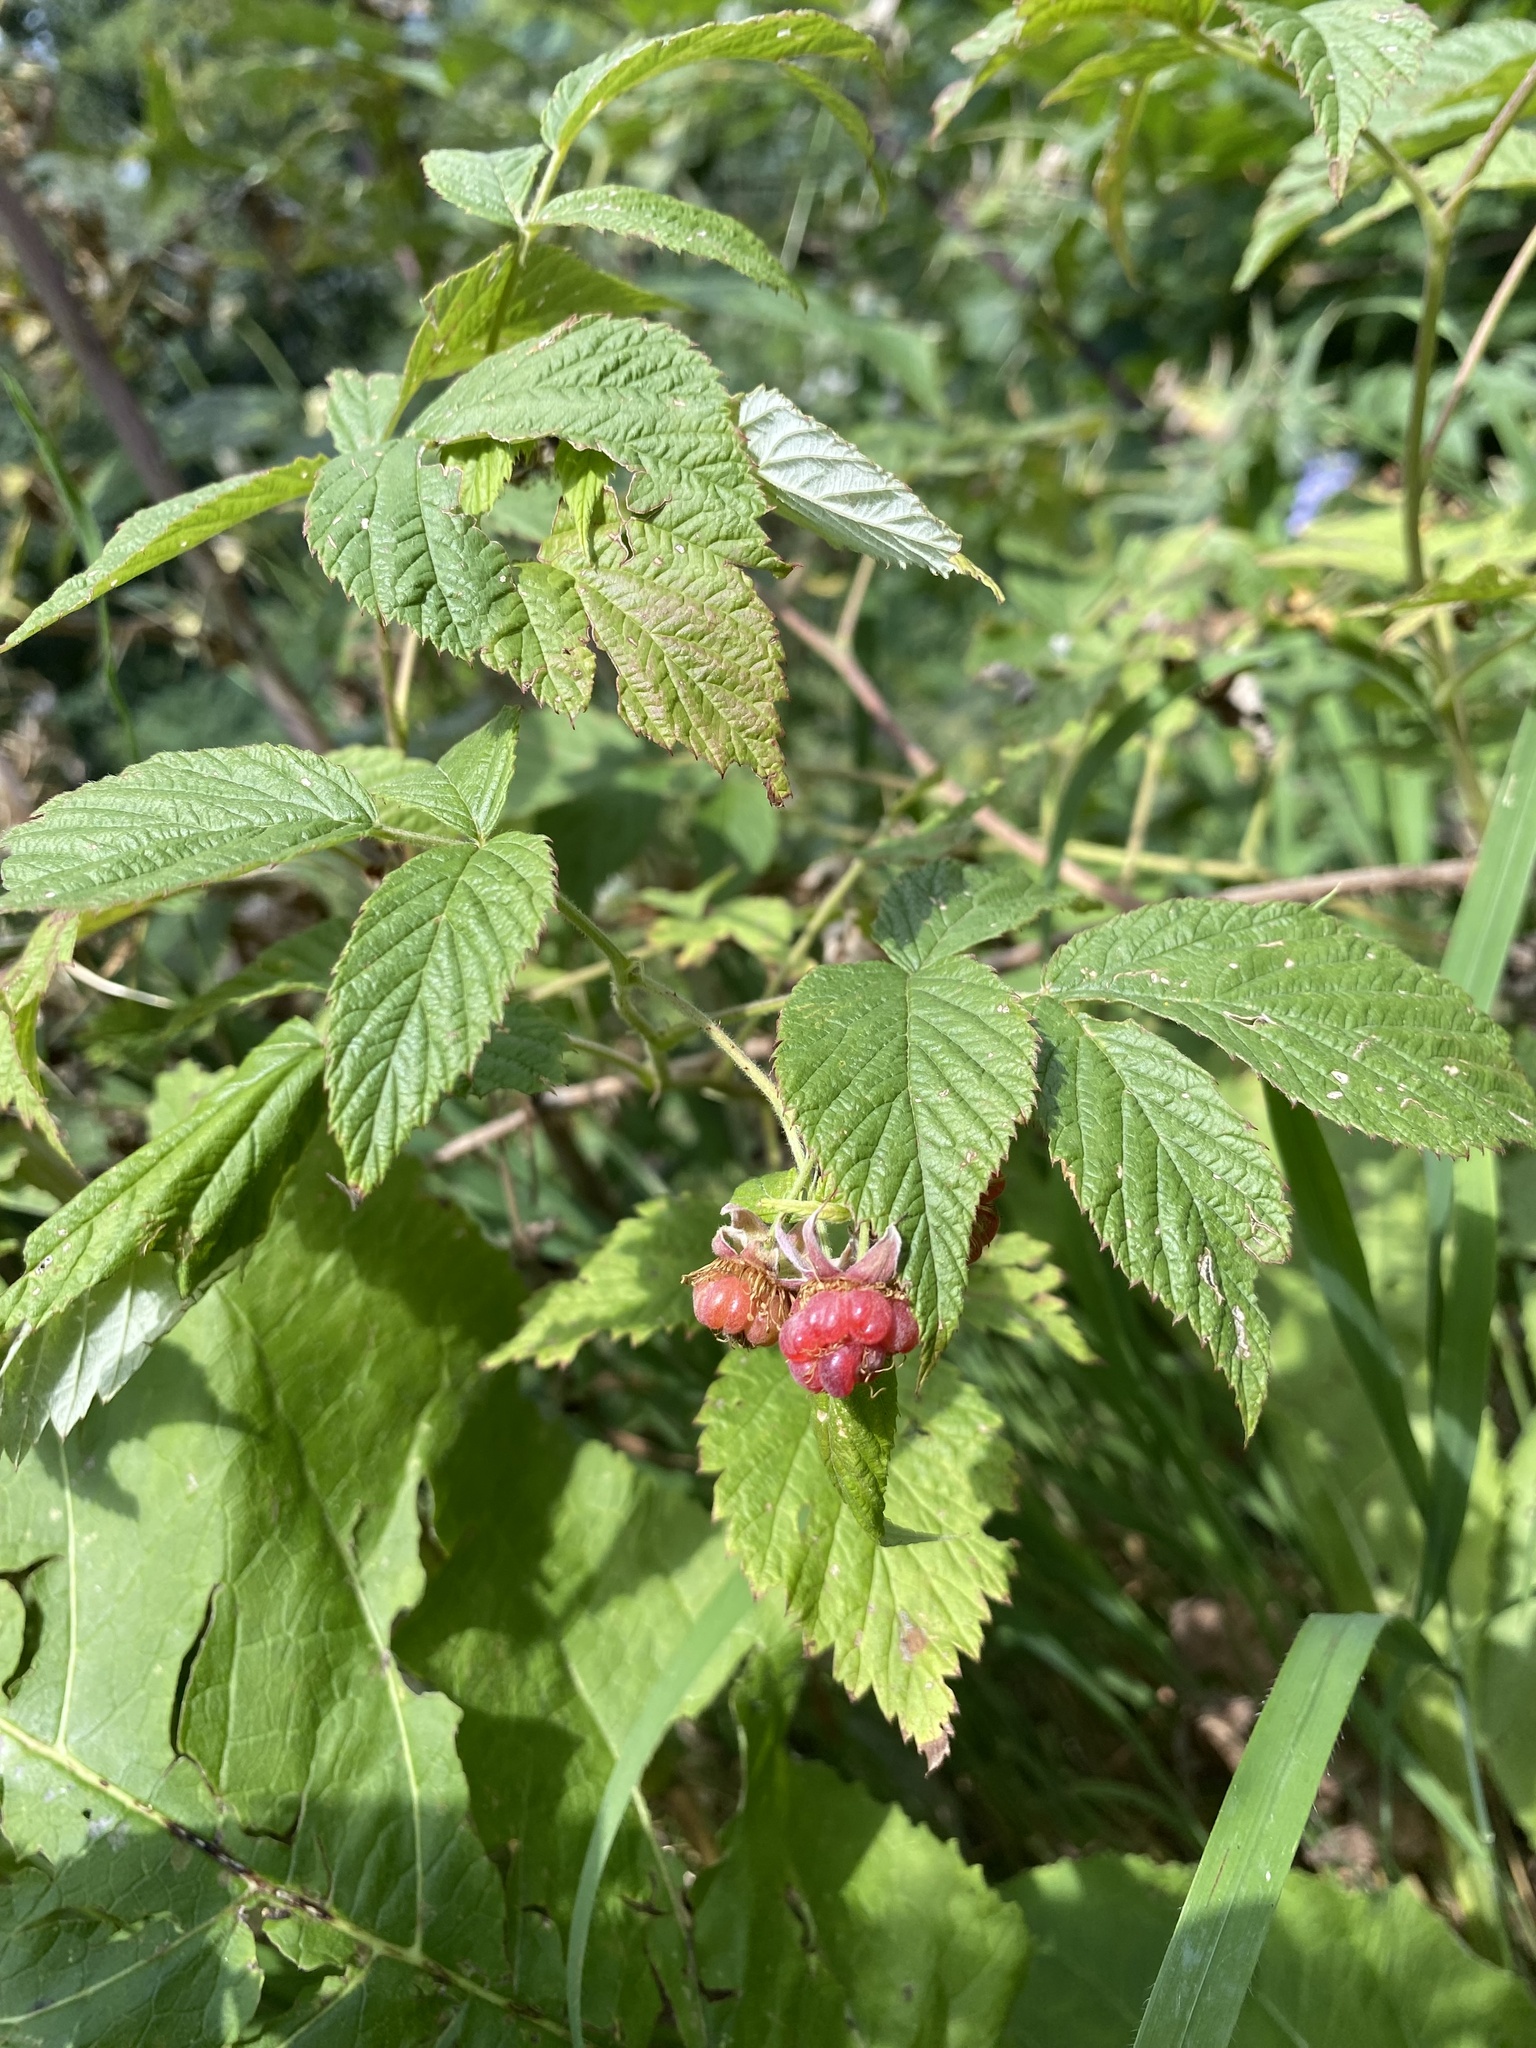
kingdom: Plantae
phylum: Tracheophyta
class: Magnoliopsida
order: Rosales
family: Rosaceae
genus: Rubus
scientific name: Rubus idaeus
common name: Raspberry
